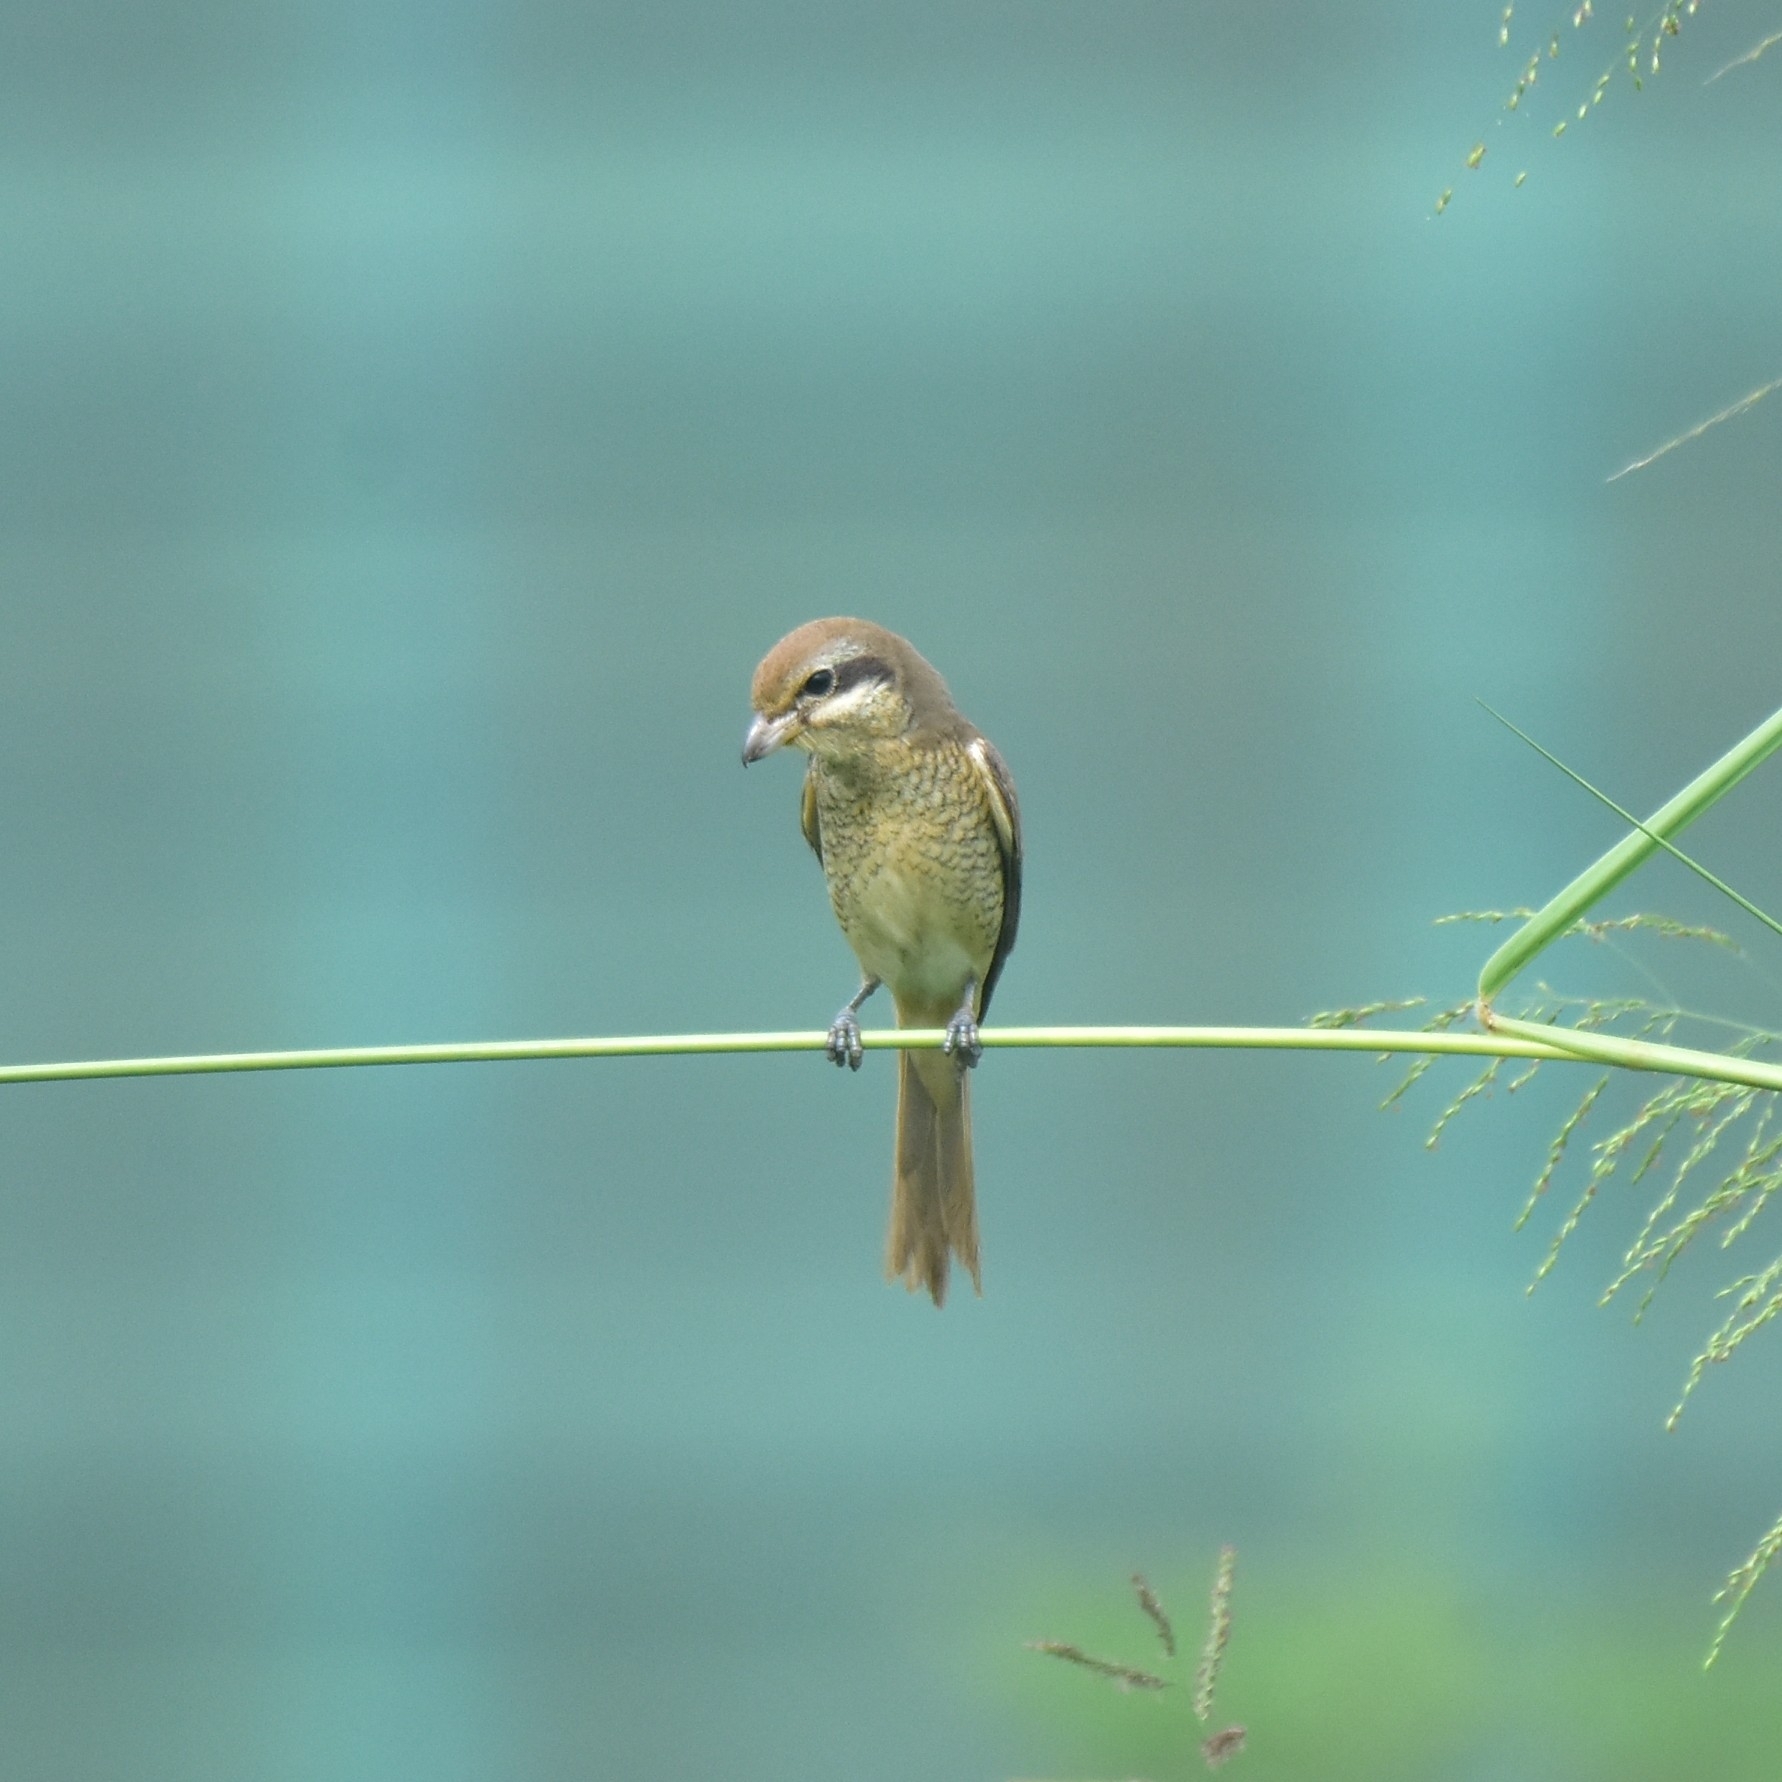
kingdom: Animalia
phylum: Chordata
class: Aves
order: Passeriformes
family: Laniidae
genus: Lanius
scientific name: Lanius cristatus
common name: Brown shrike
